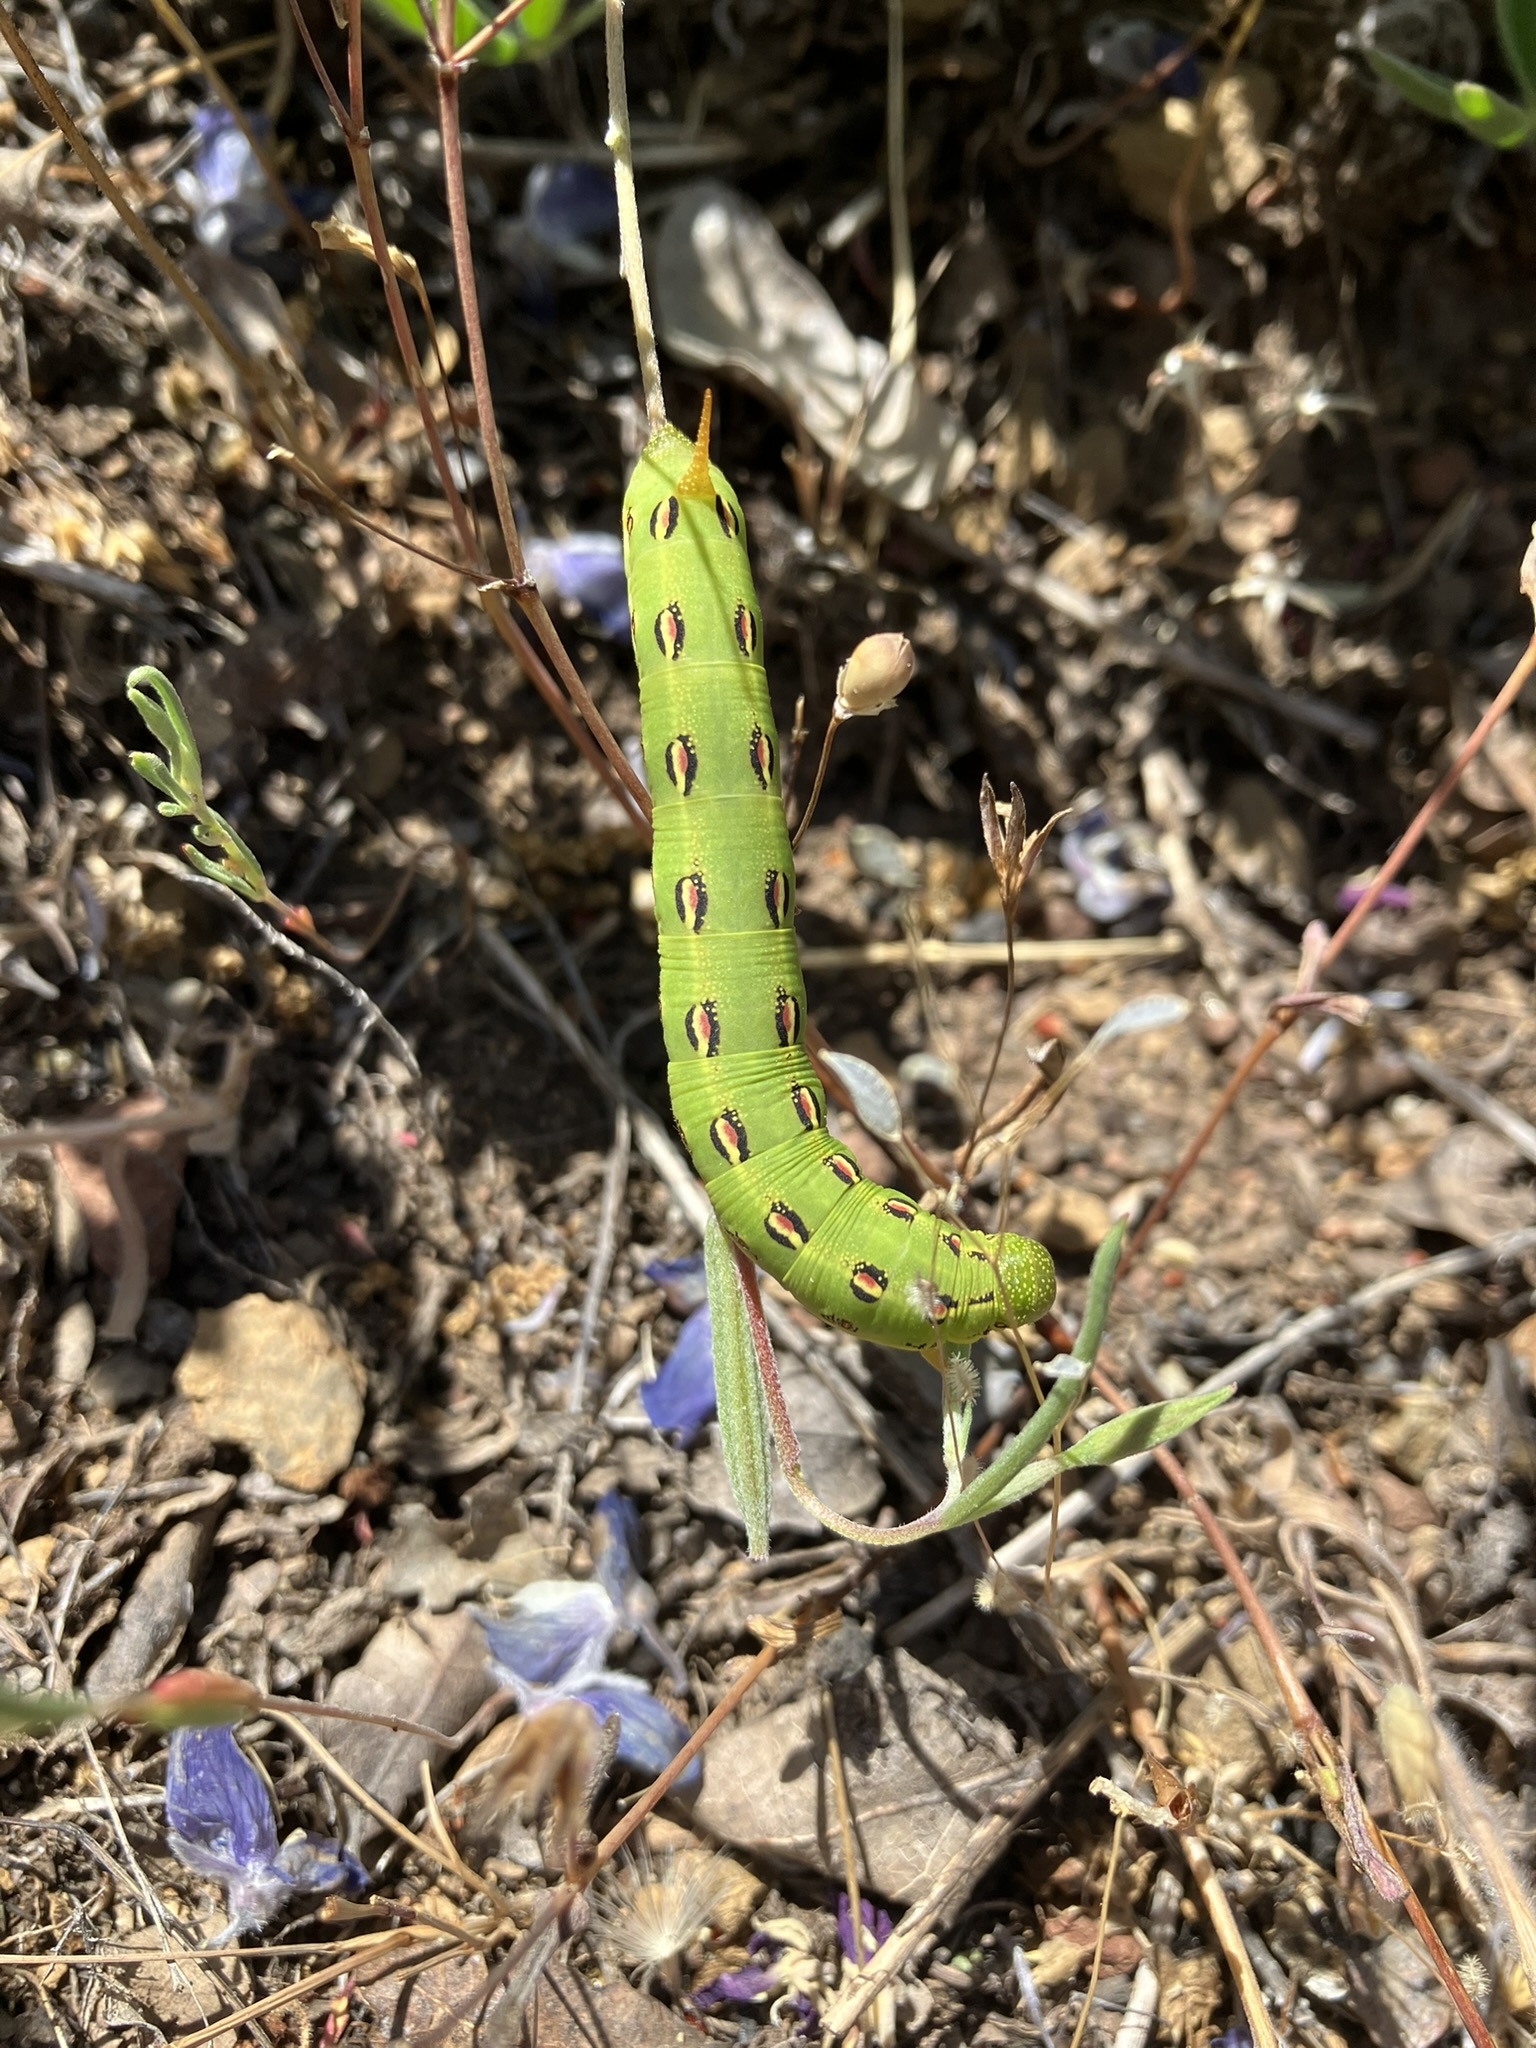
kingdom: Animalia
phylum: Arthropoda
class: Insecta
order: Lepidoptera
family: Sphingidae
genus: Hyles
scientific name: Hyles lineata
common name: White-lined sphinx
